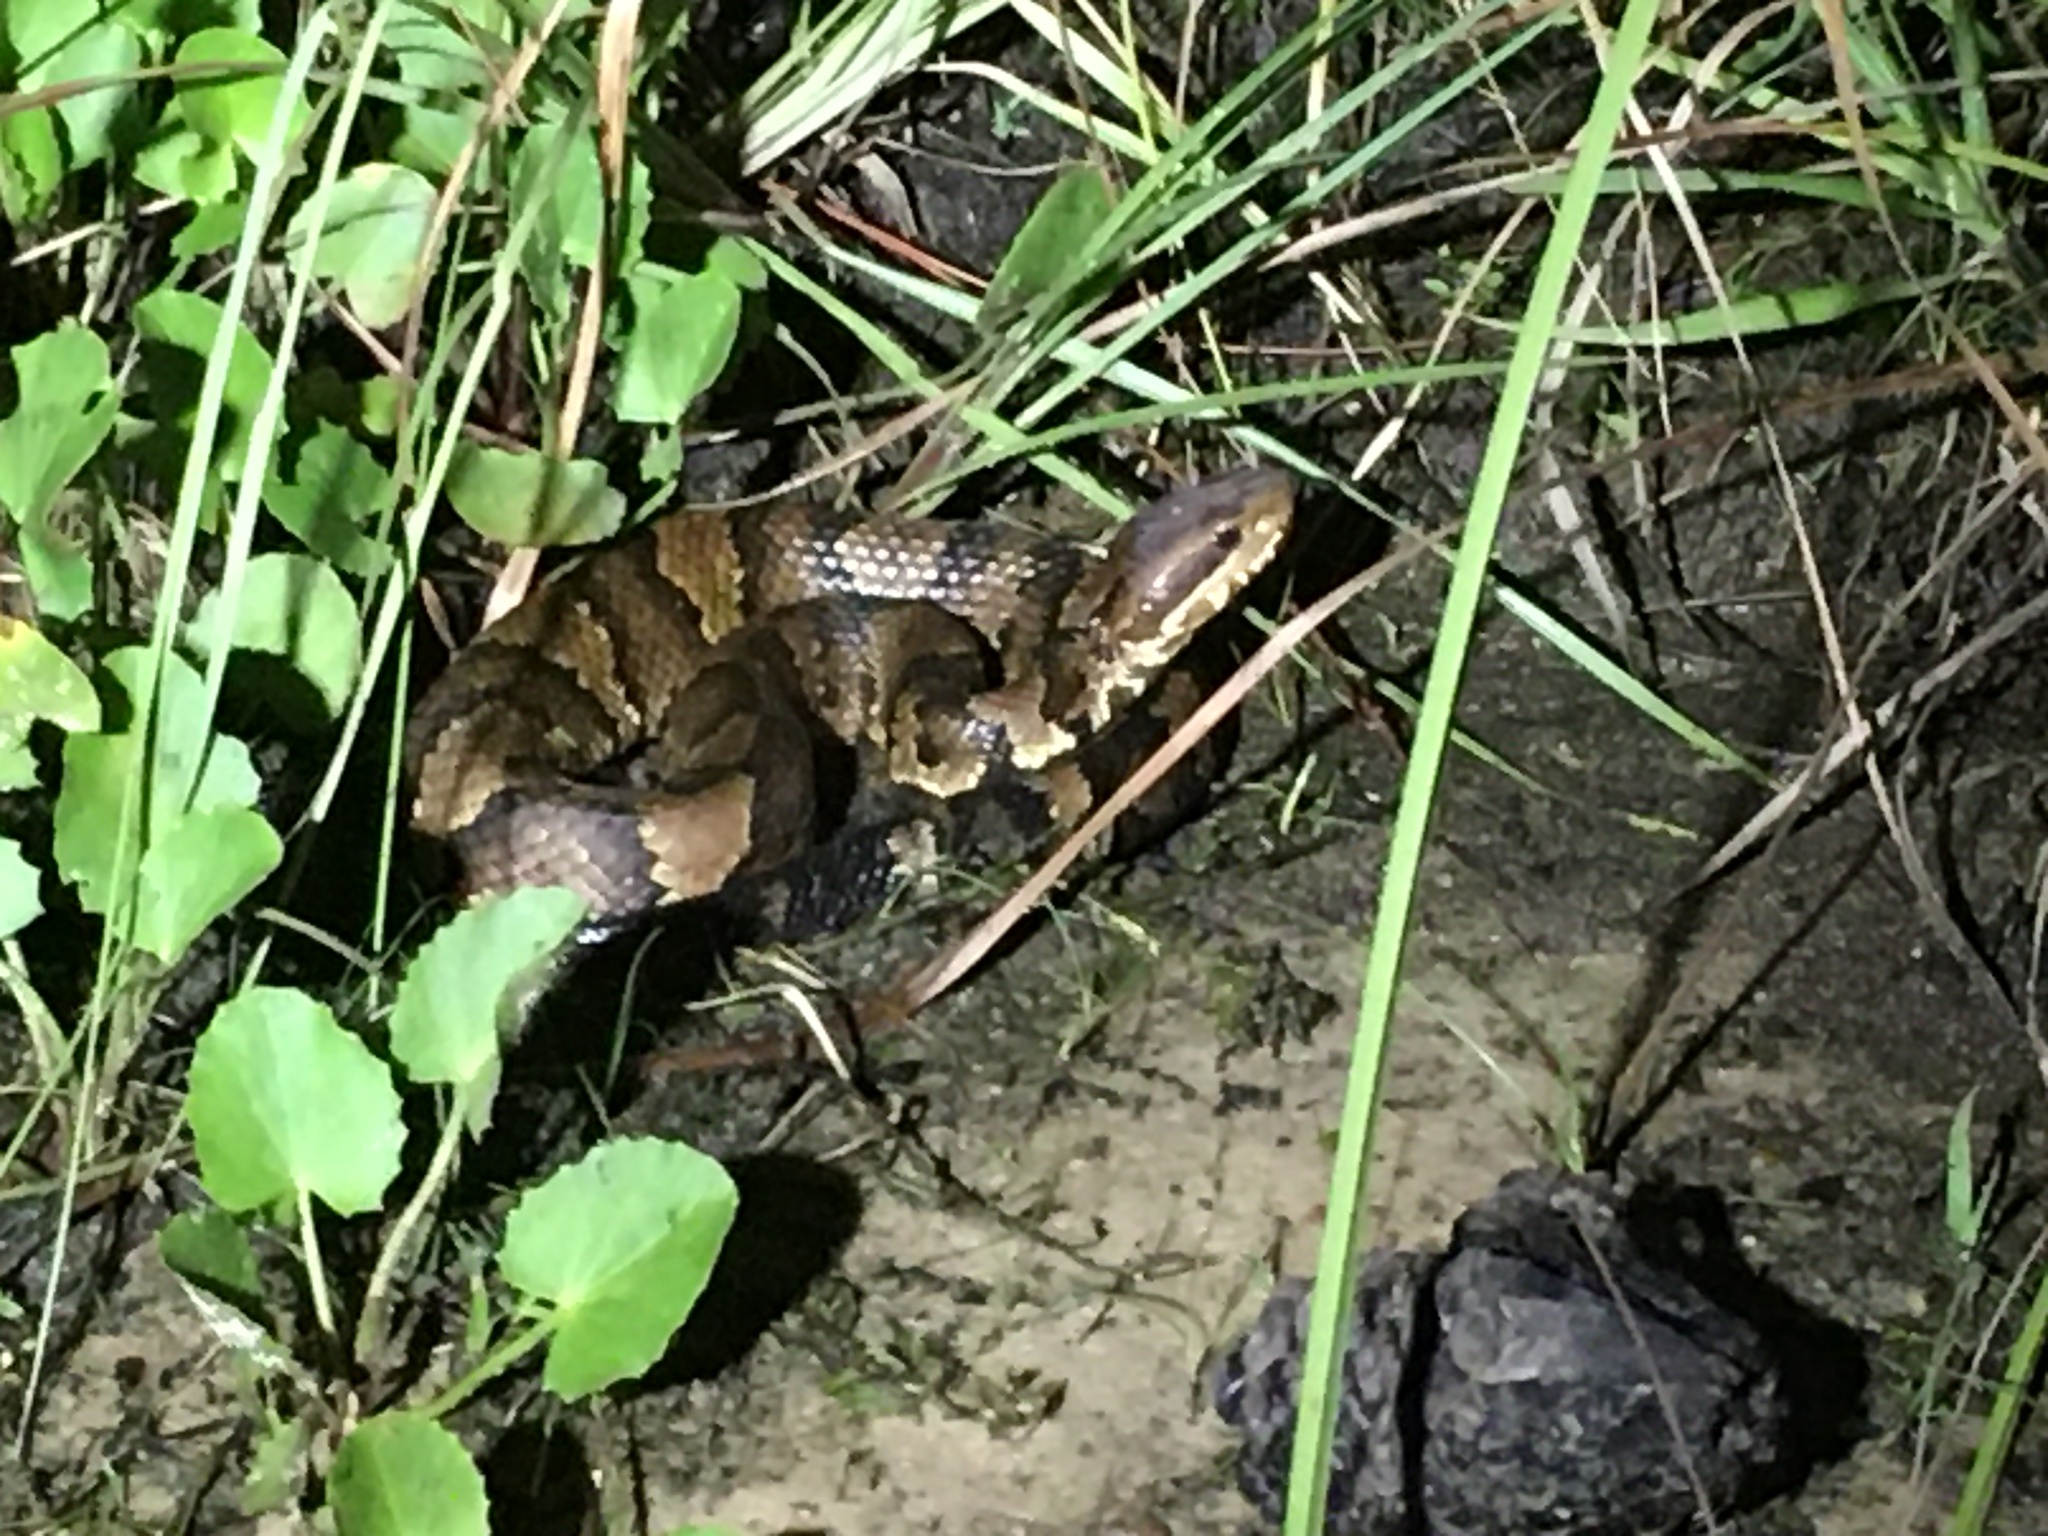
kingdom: Animalia
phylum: Chordata
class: Squamata
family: Viperidae
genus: Agkistrodon
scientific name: Agkistrodon piscivorus
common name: Cottonmouth
